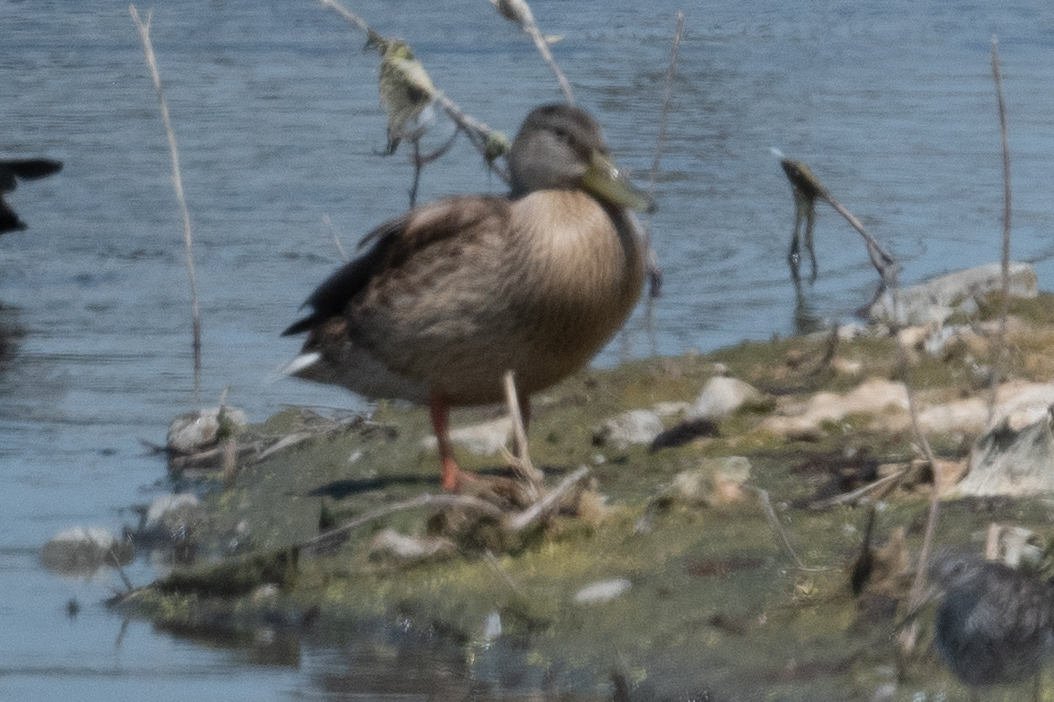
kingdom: Animalia
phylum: Chordata
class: Aves
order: Anseriformes
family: Anatidae
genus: Anas
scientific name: Anas platyrhynchos
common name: Mallard
